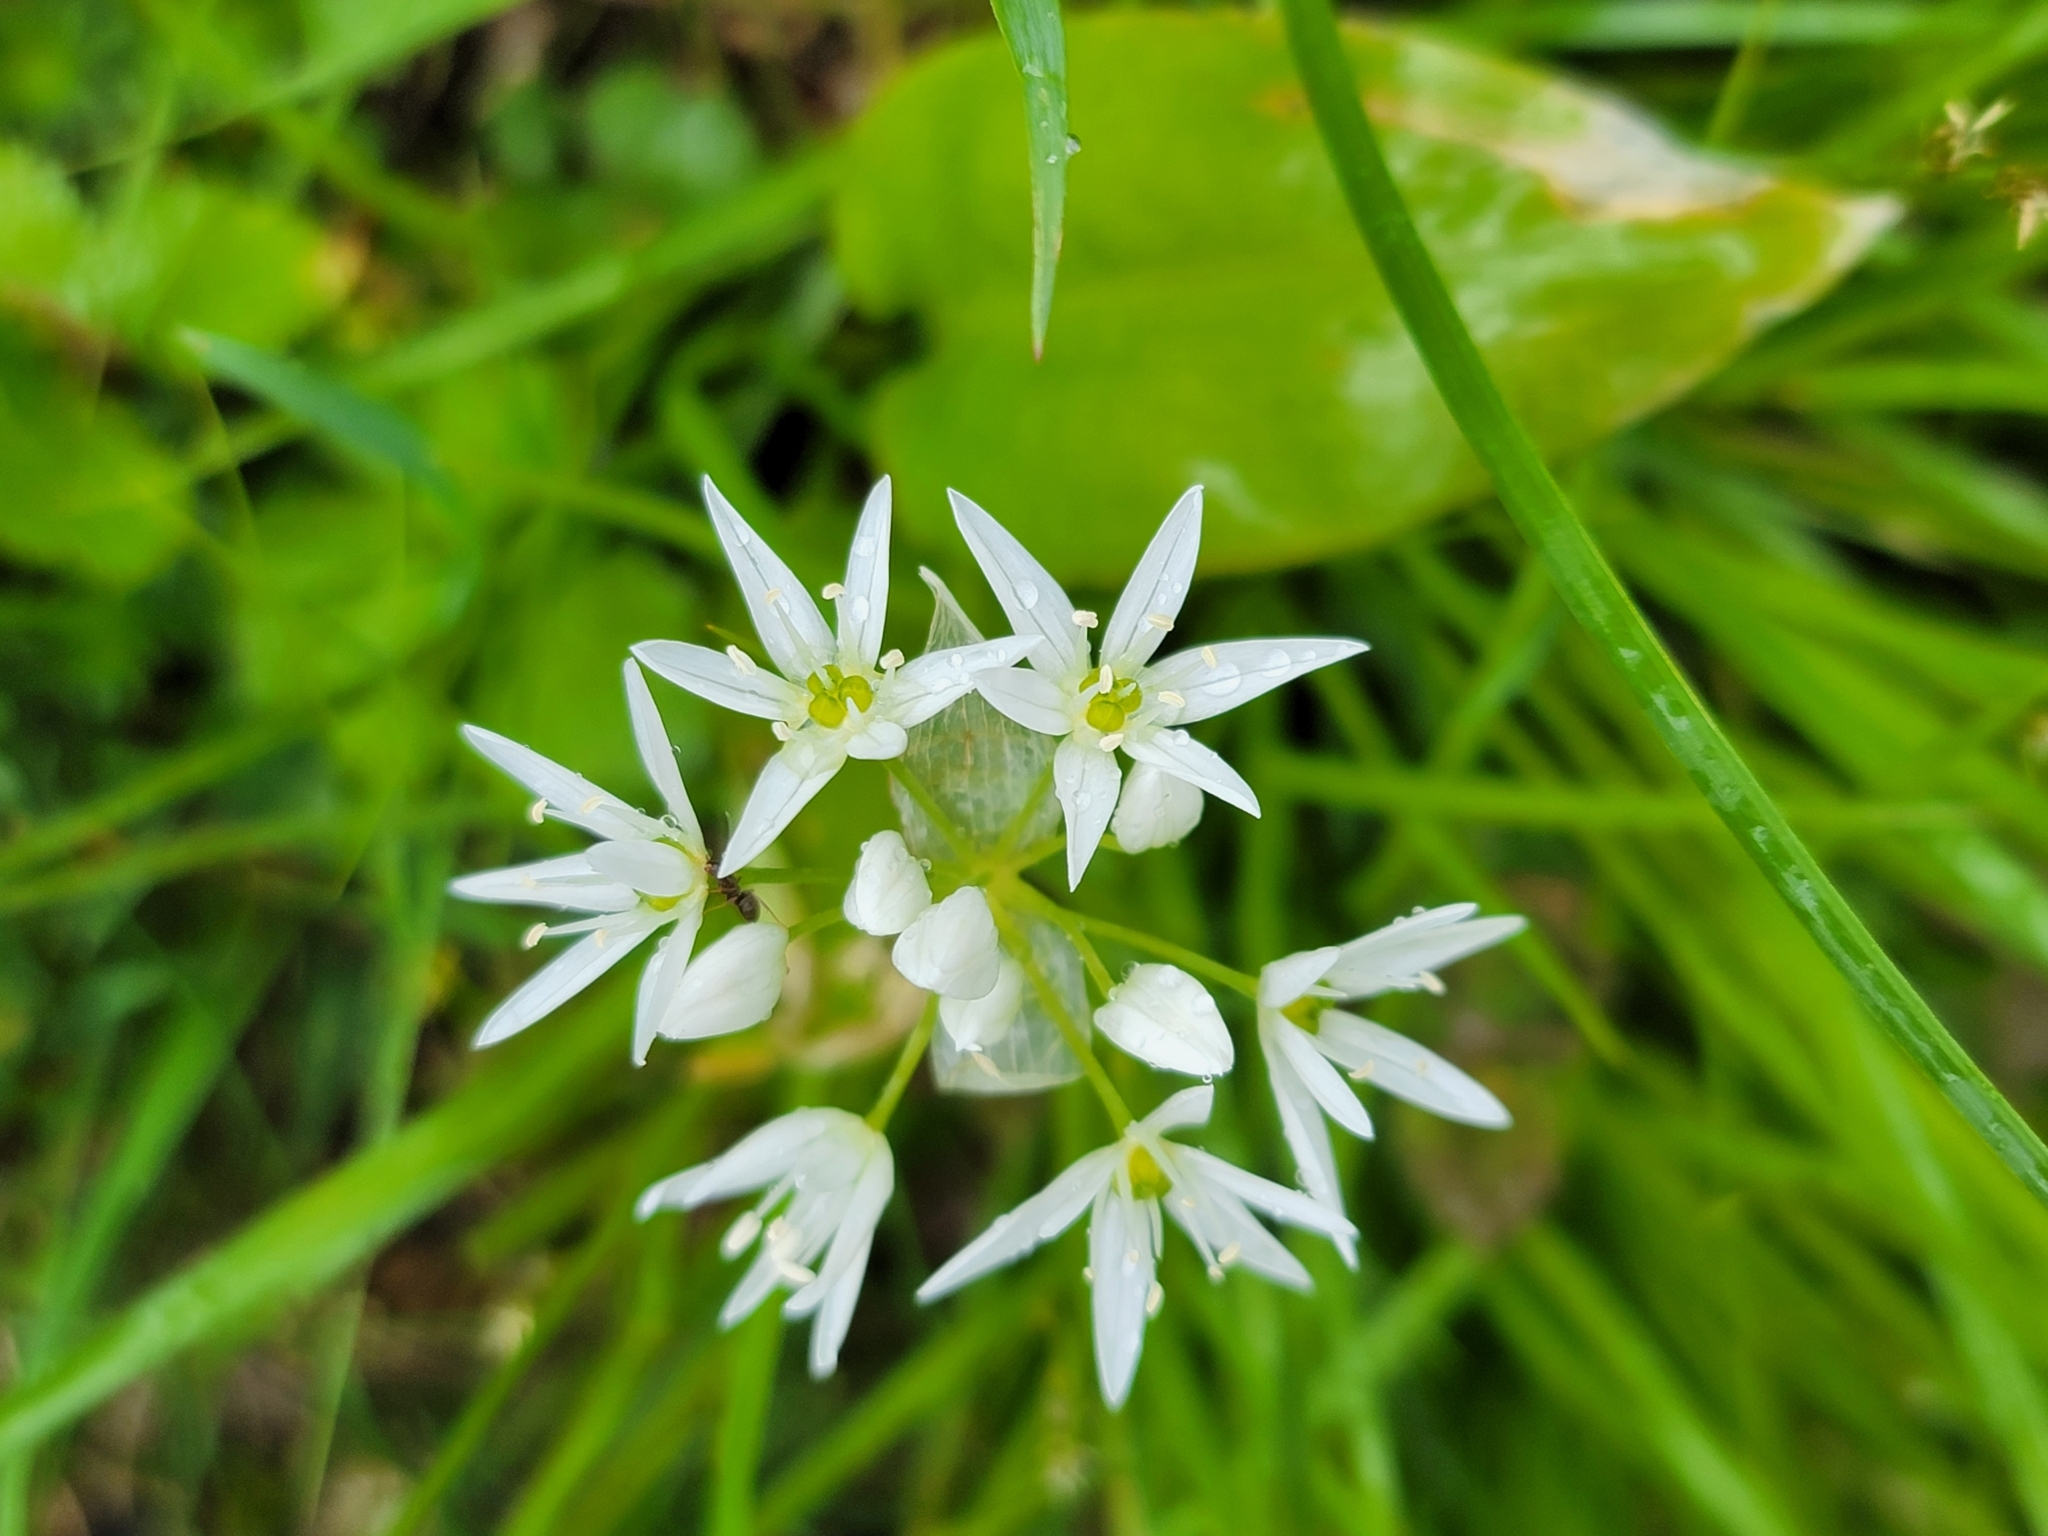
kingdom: Plantae
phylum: Tracheophyta
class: Liliopsida
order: Asparagales
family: Amaryllidaceae
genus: Allium
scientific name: Allium ursinum
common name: Ramsons
